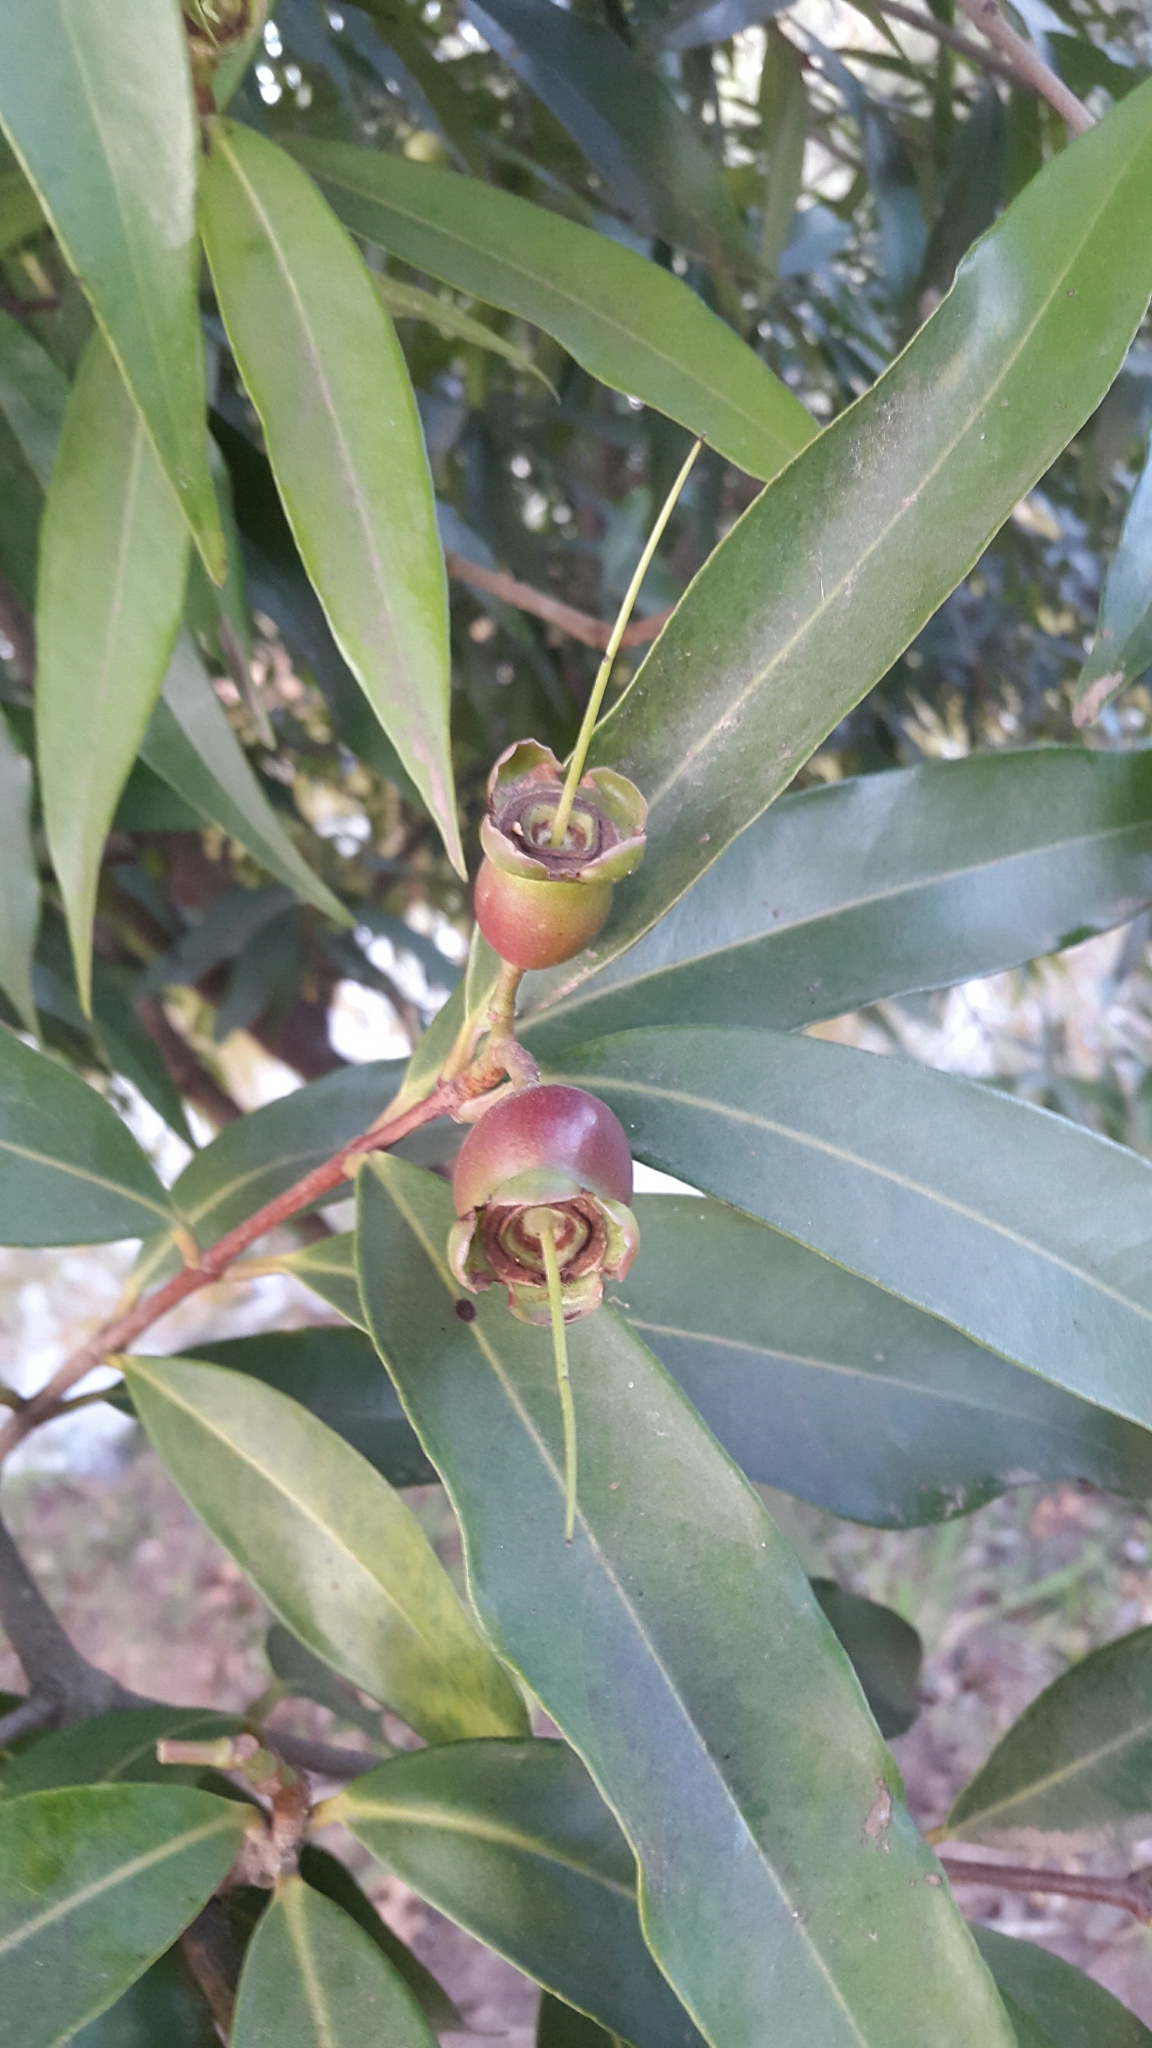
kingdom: Plantae
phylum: Tracheophyta
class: Magnoliopsida
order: Myrtales
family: Myrtaceae
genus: Syzygium
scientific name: Syzygium jambos
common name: Malabar plum
